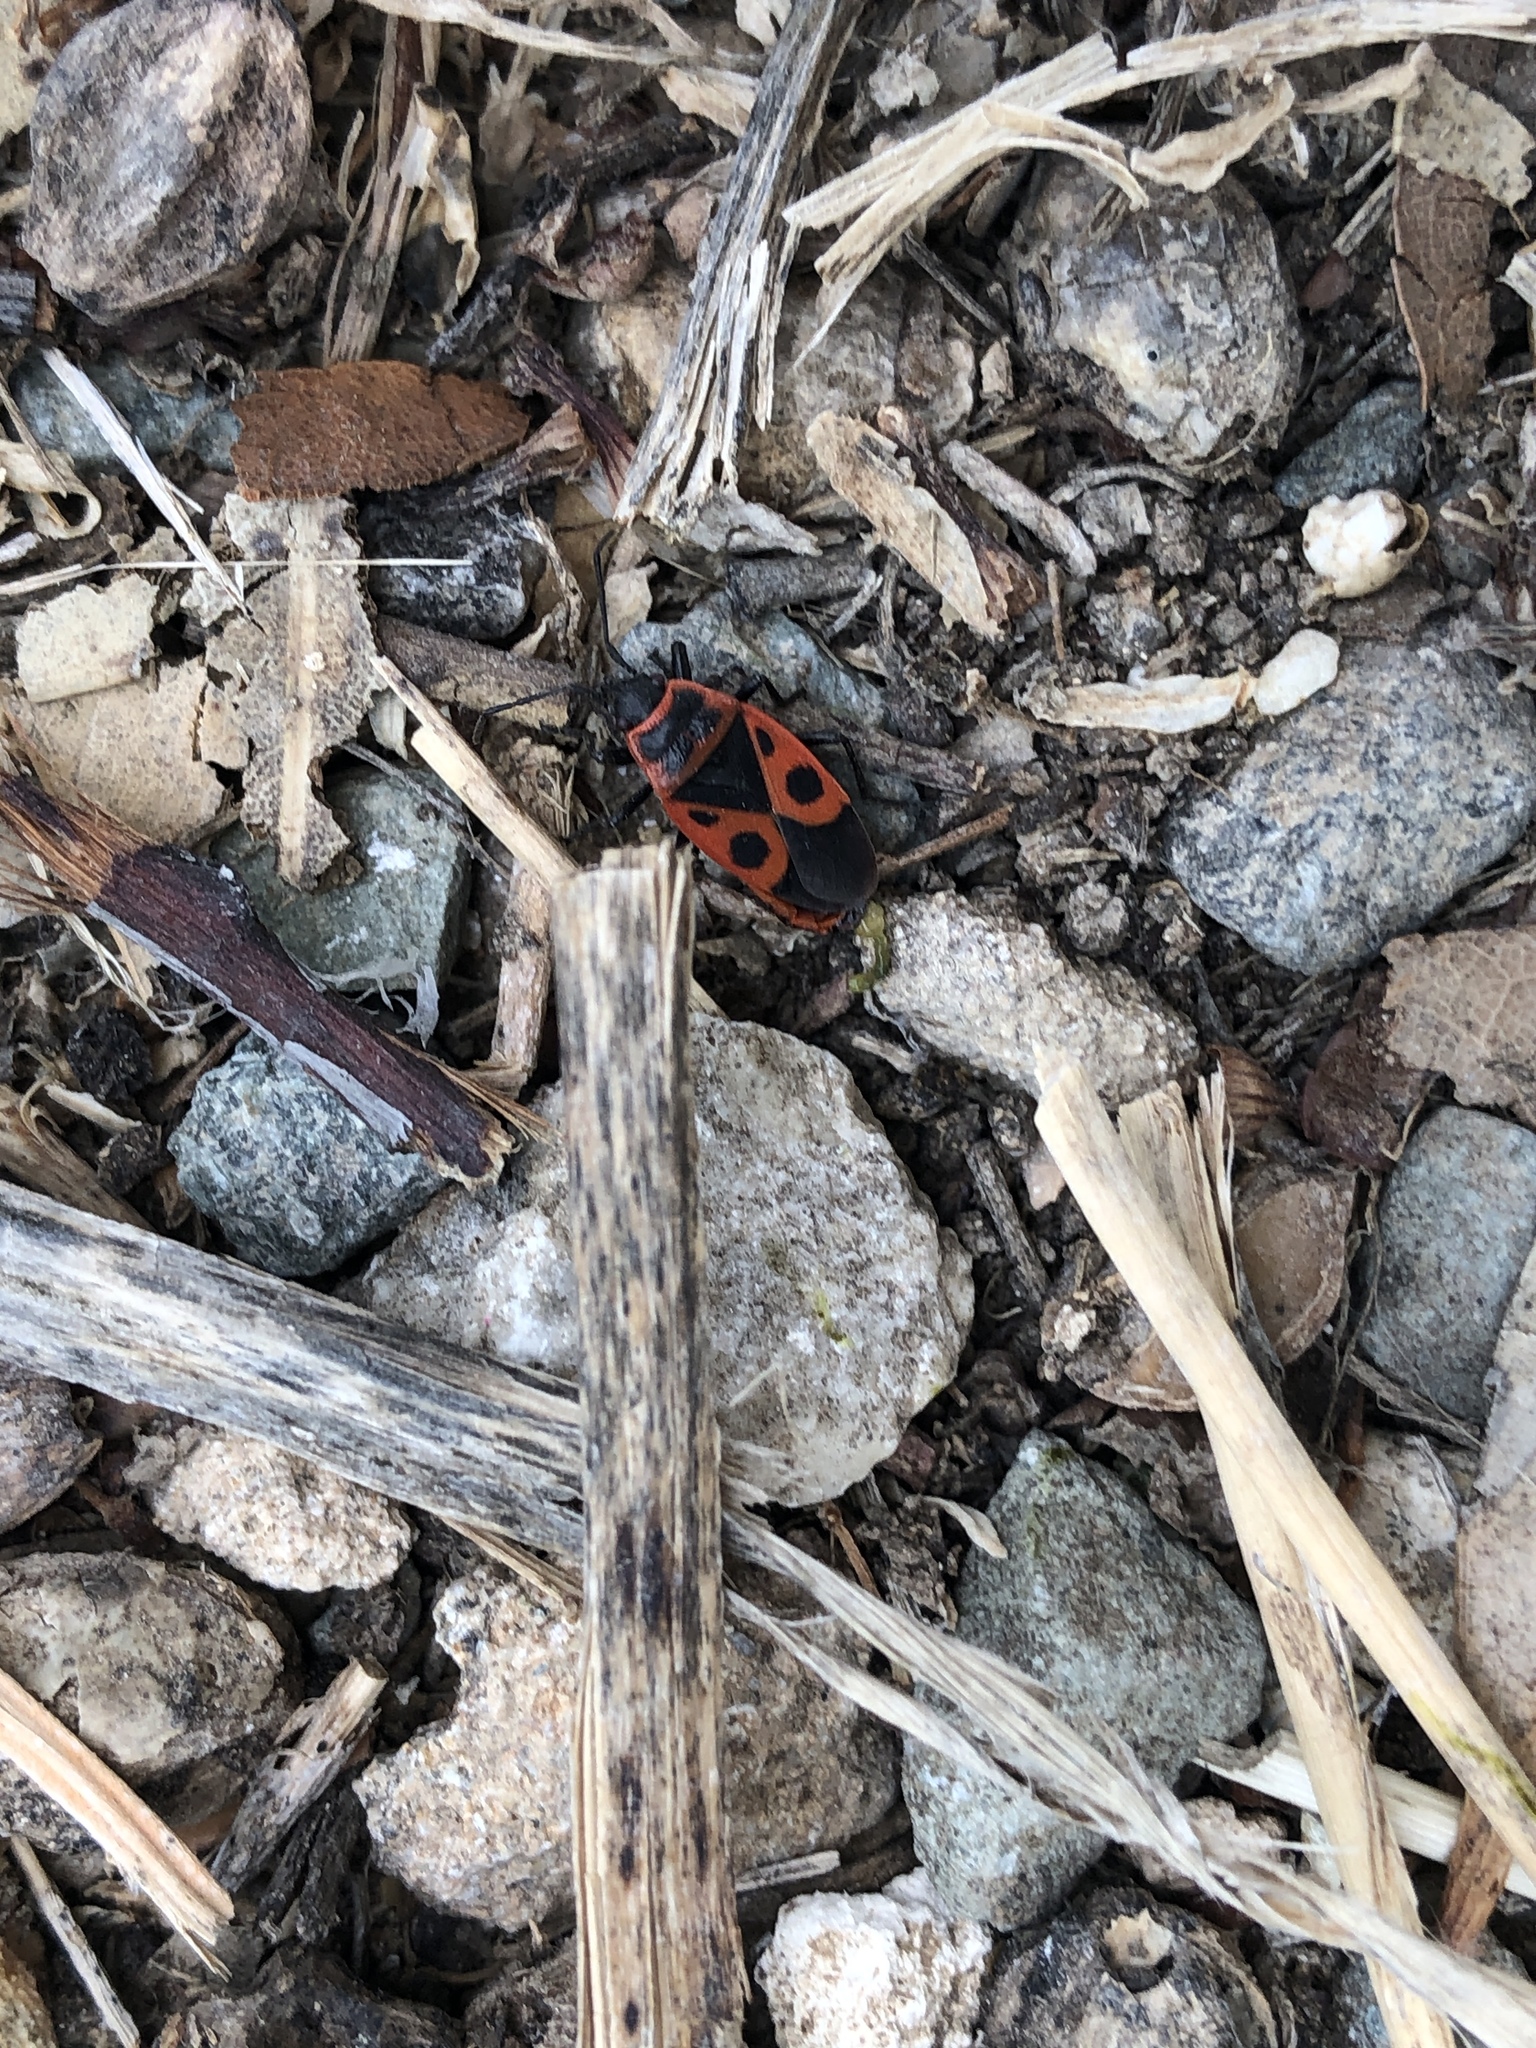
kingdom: Animalia
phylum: Arthropoda
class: Insecta
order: Hemiptera
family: Pyrrhocoridae
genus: Pyrrhocoris
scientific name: Pyrrhocoris apterus
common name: Firebug
